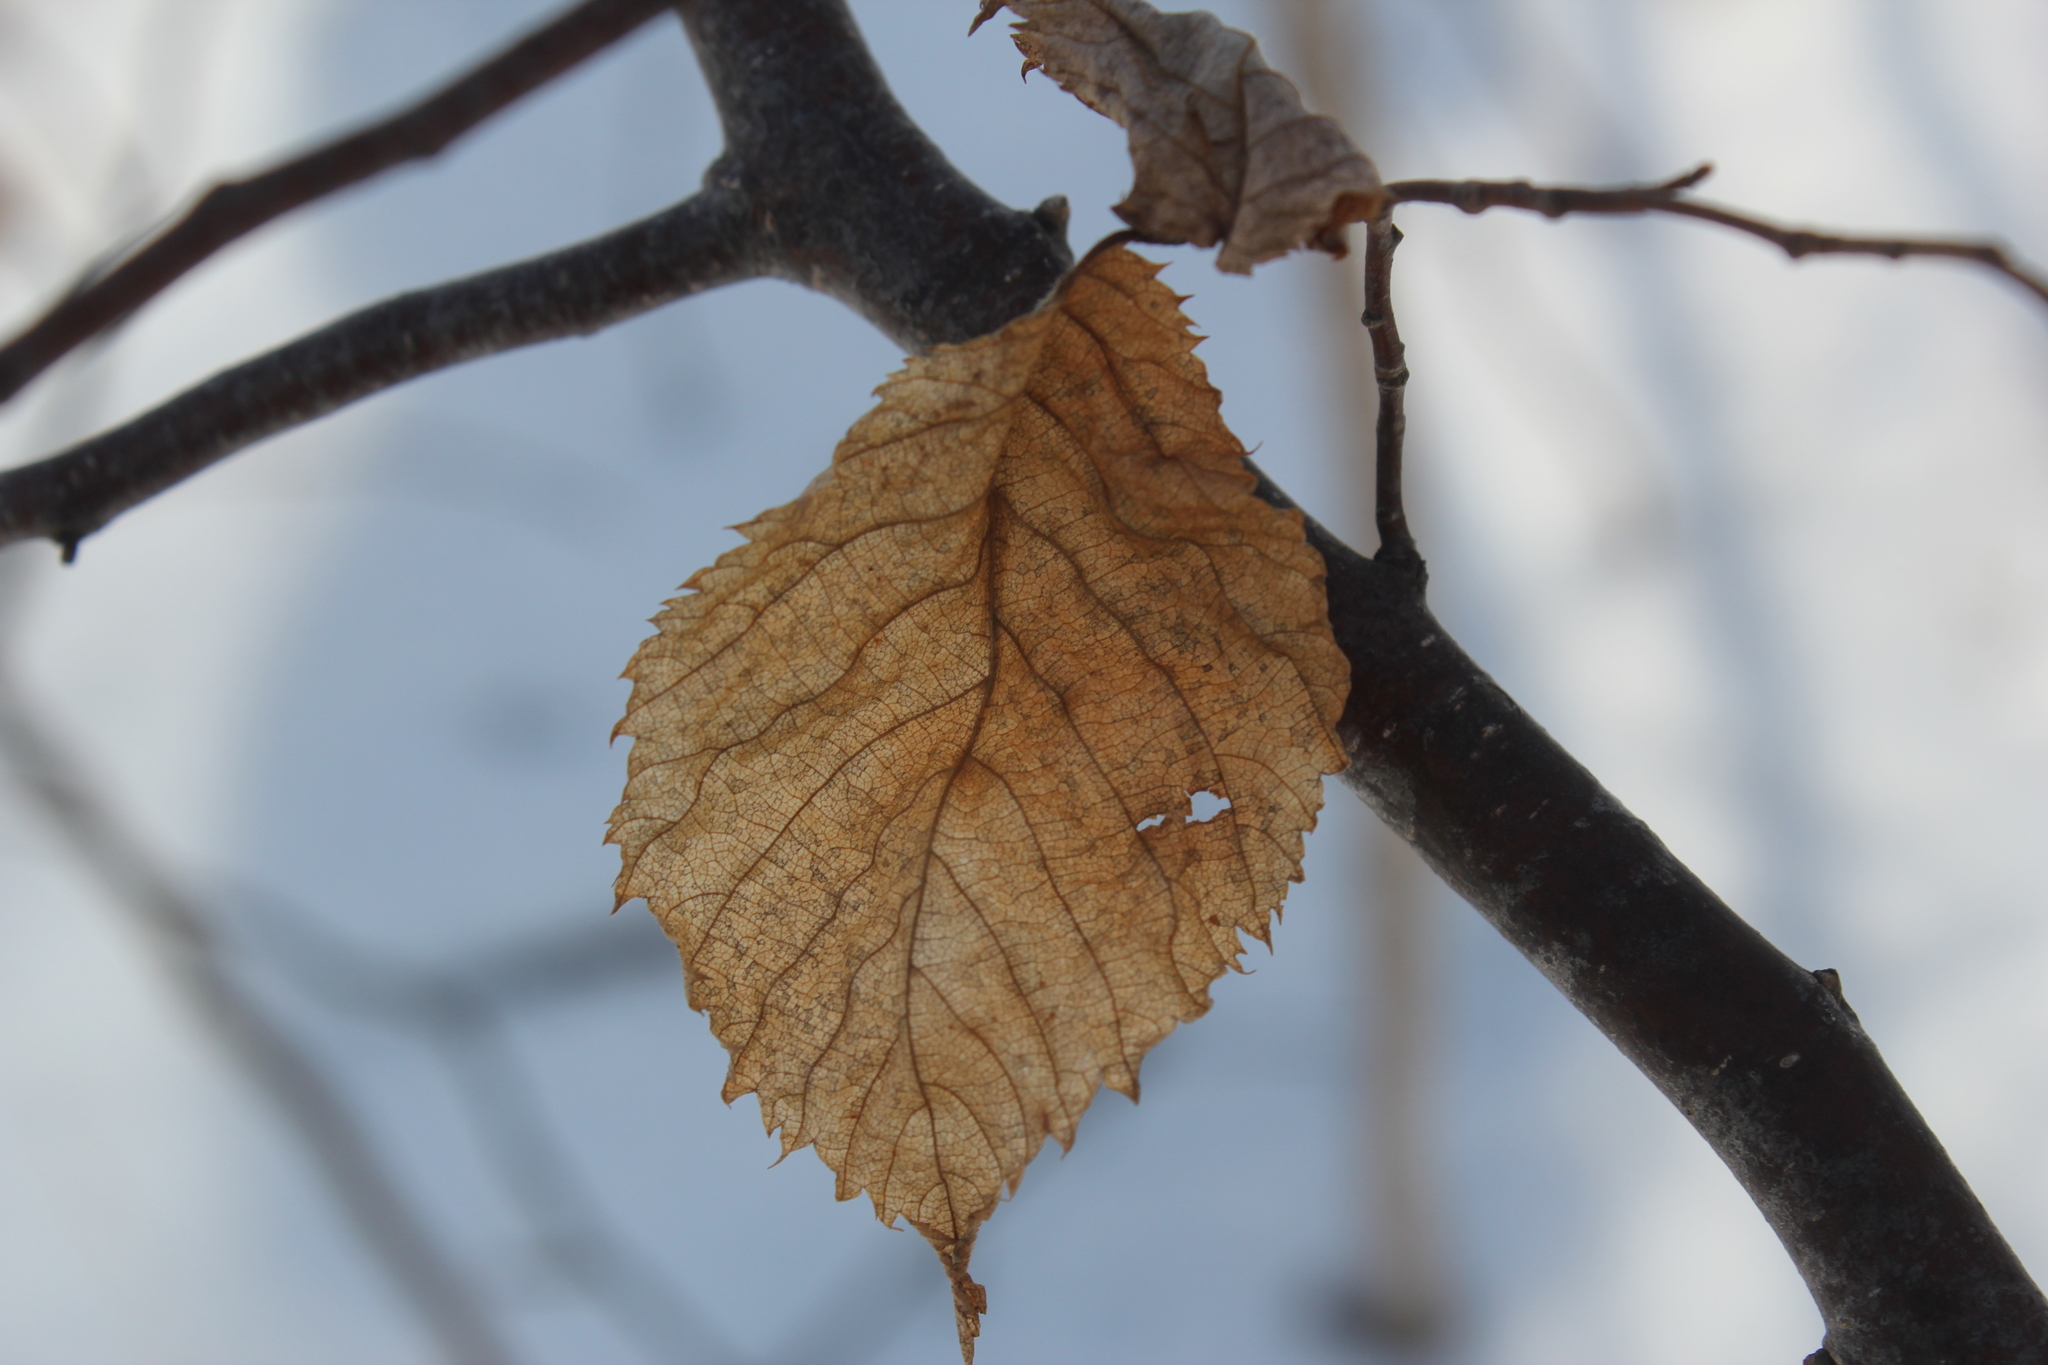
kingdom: Plantae
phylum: Tracheophyta
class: Magnoliopsida
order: Fagales
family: Betulaceae
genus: Ostrya
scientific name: Ostrya virginiana
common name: Ironwood
